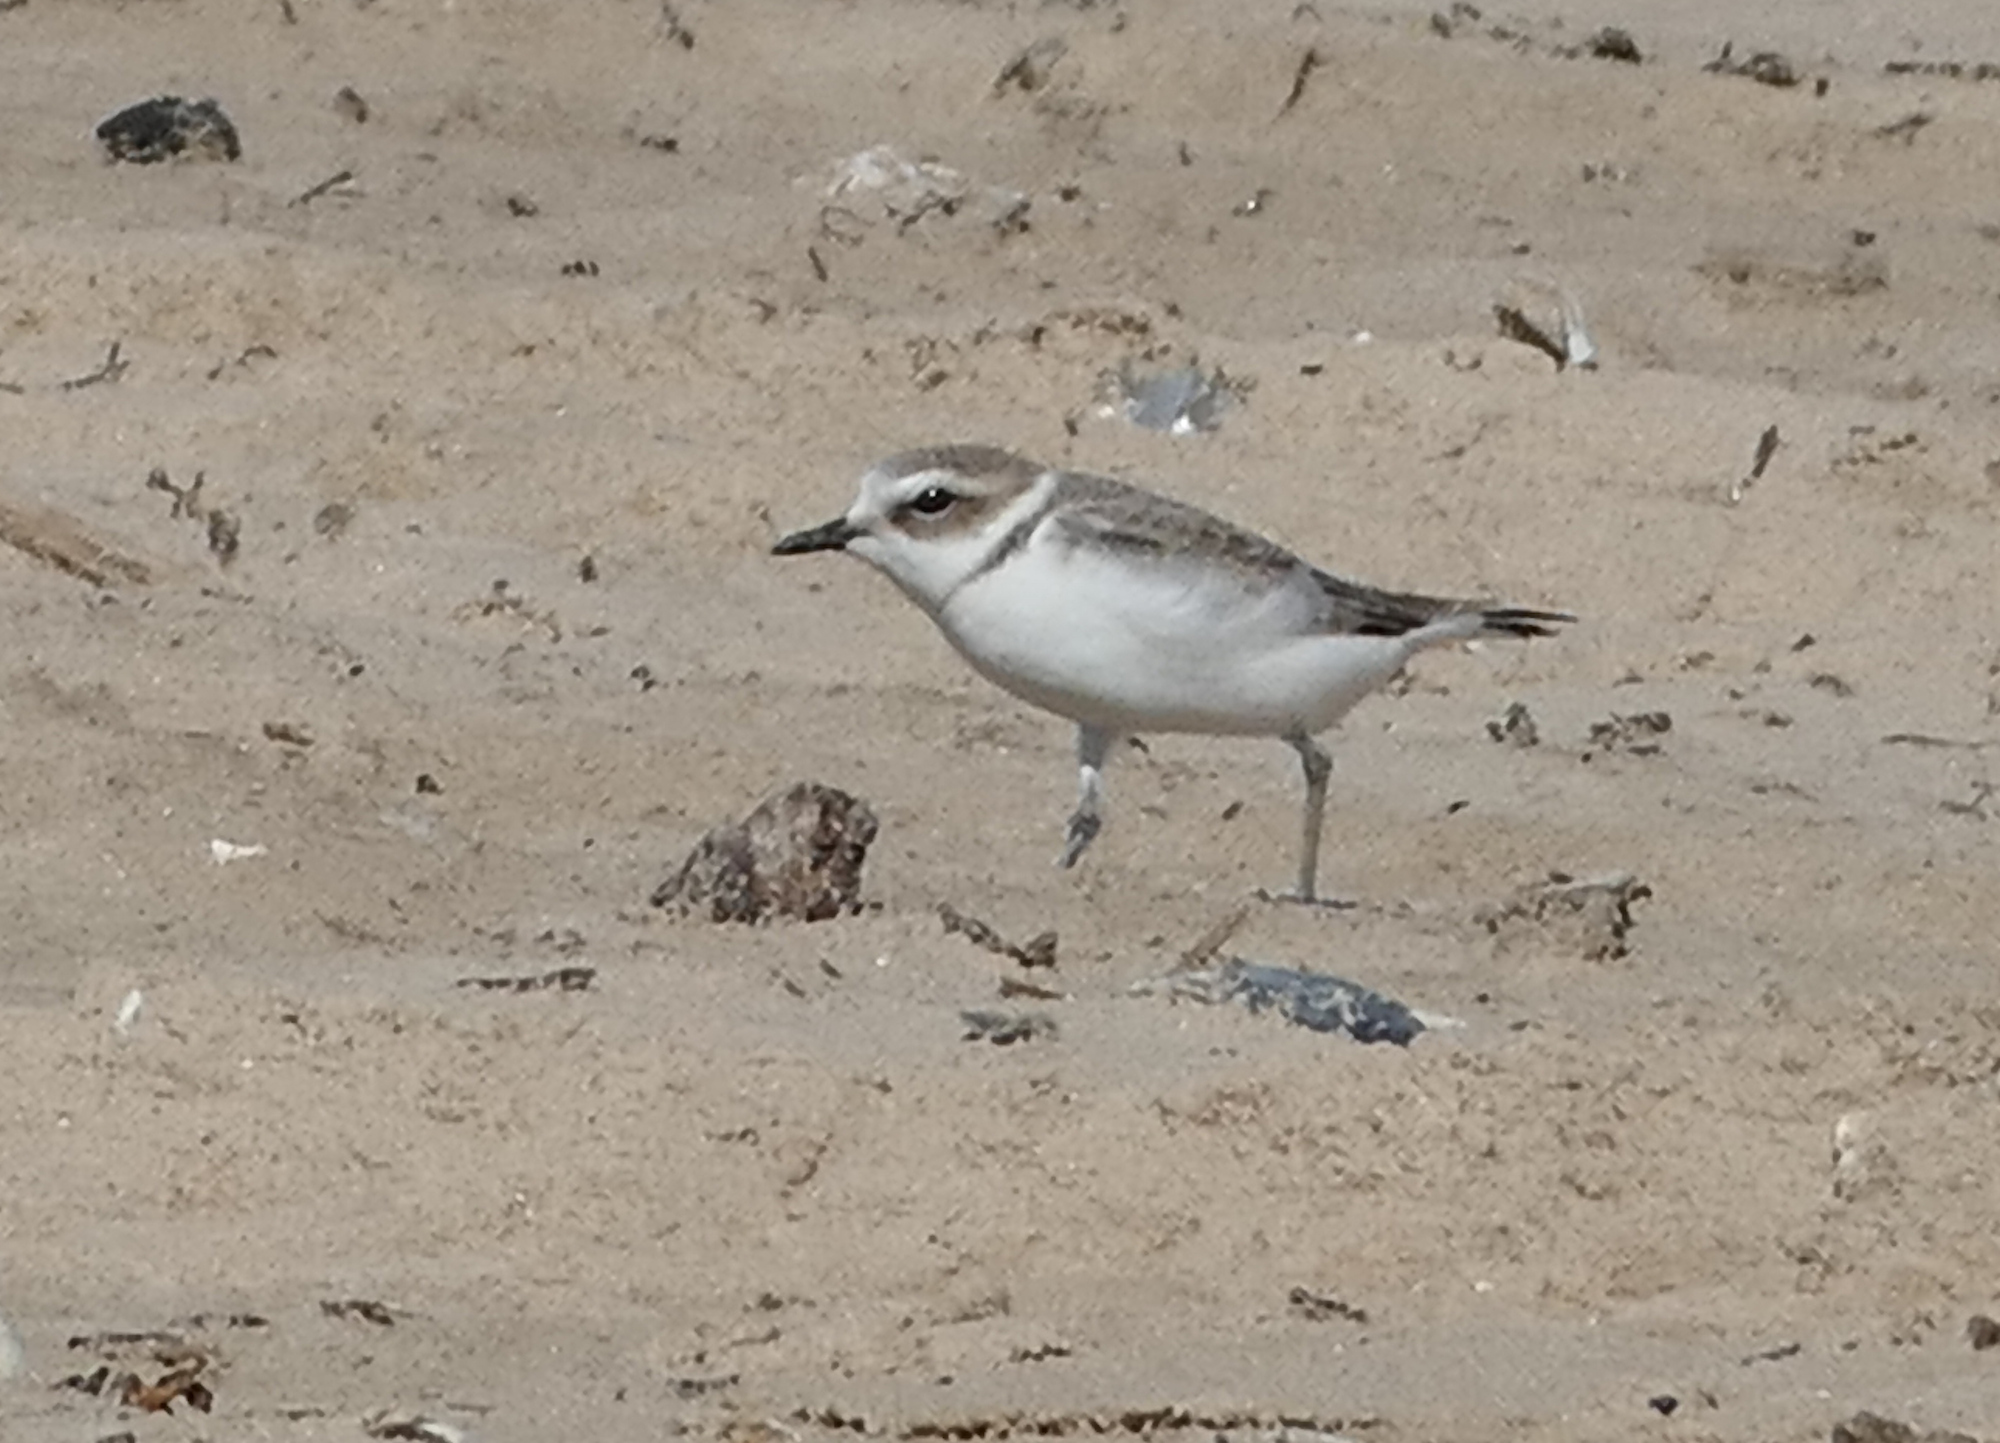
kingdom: Animalia
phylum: Chordata
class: Aves
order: Charadriiformes
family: Charadriidae
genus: Anarhynchus
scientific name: Anarhynchus
